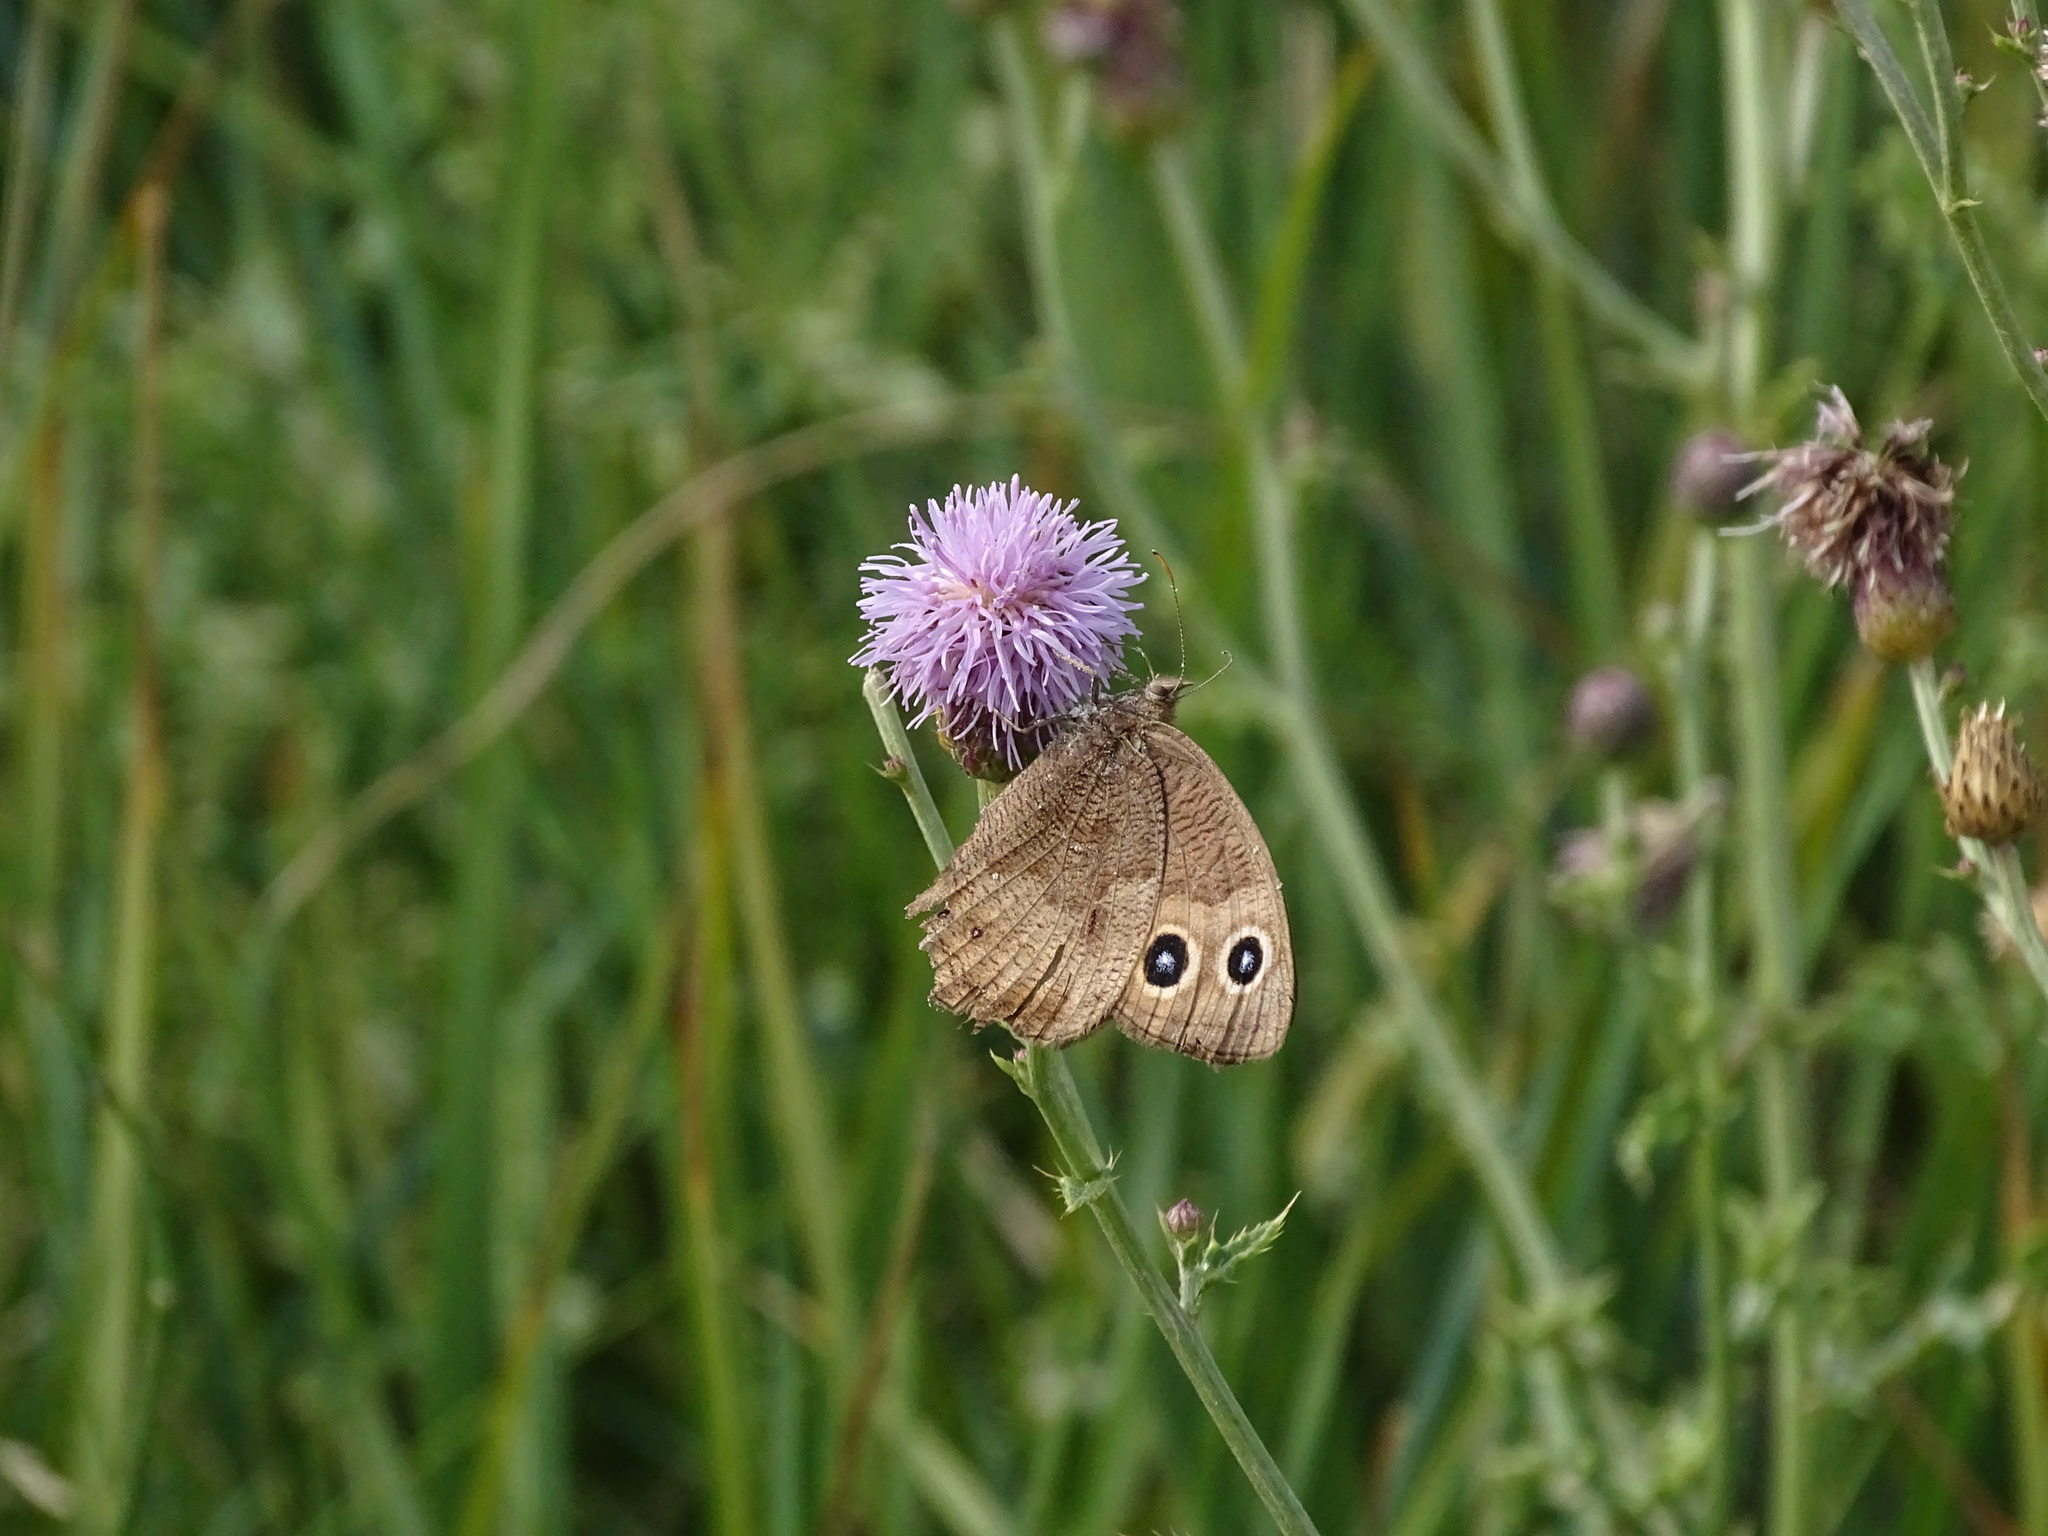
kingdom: Animalia
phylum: Arthropoda
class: Insecta
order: Lepidoptera
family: Nymphalidae
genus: Cercyonis
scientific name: Cercyonis pegala
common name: Common wood-nymph
